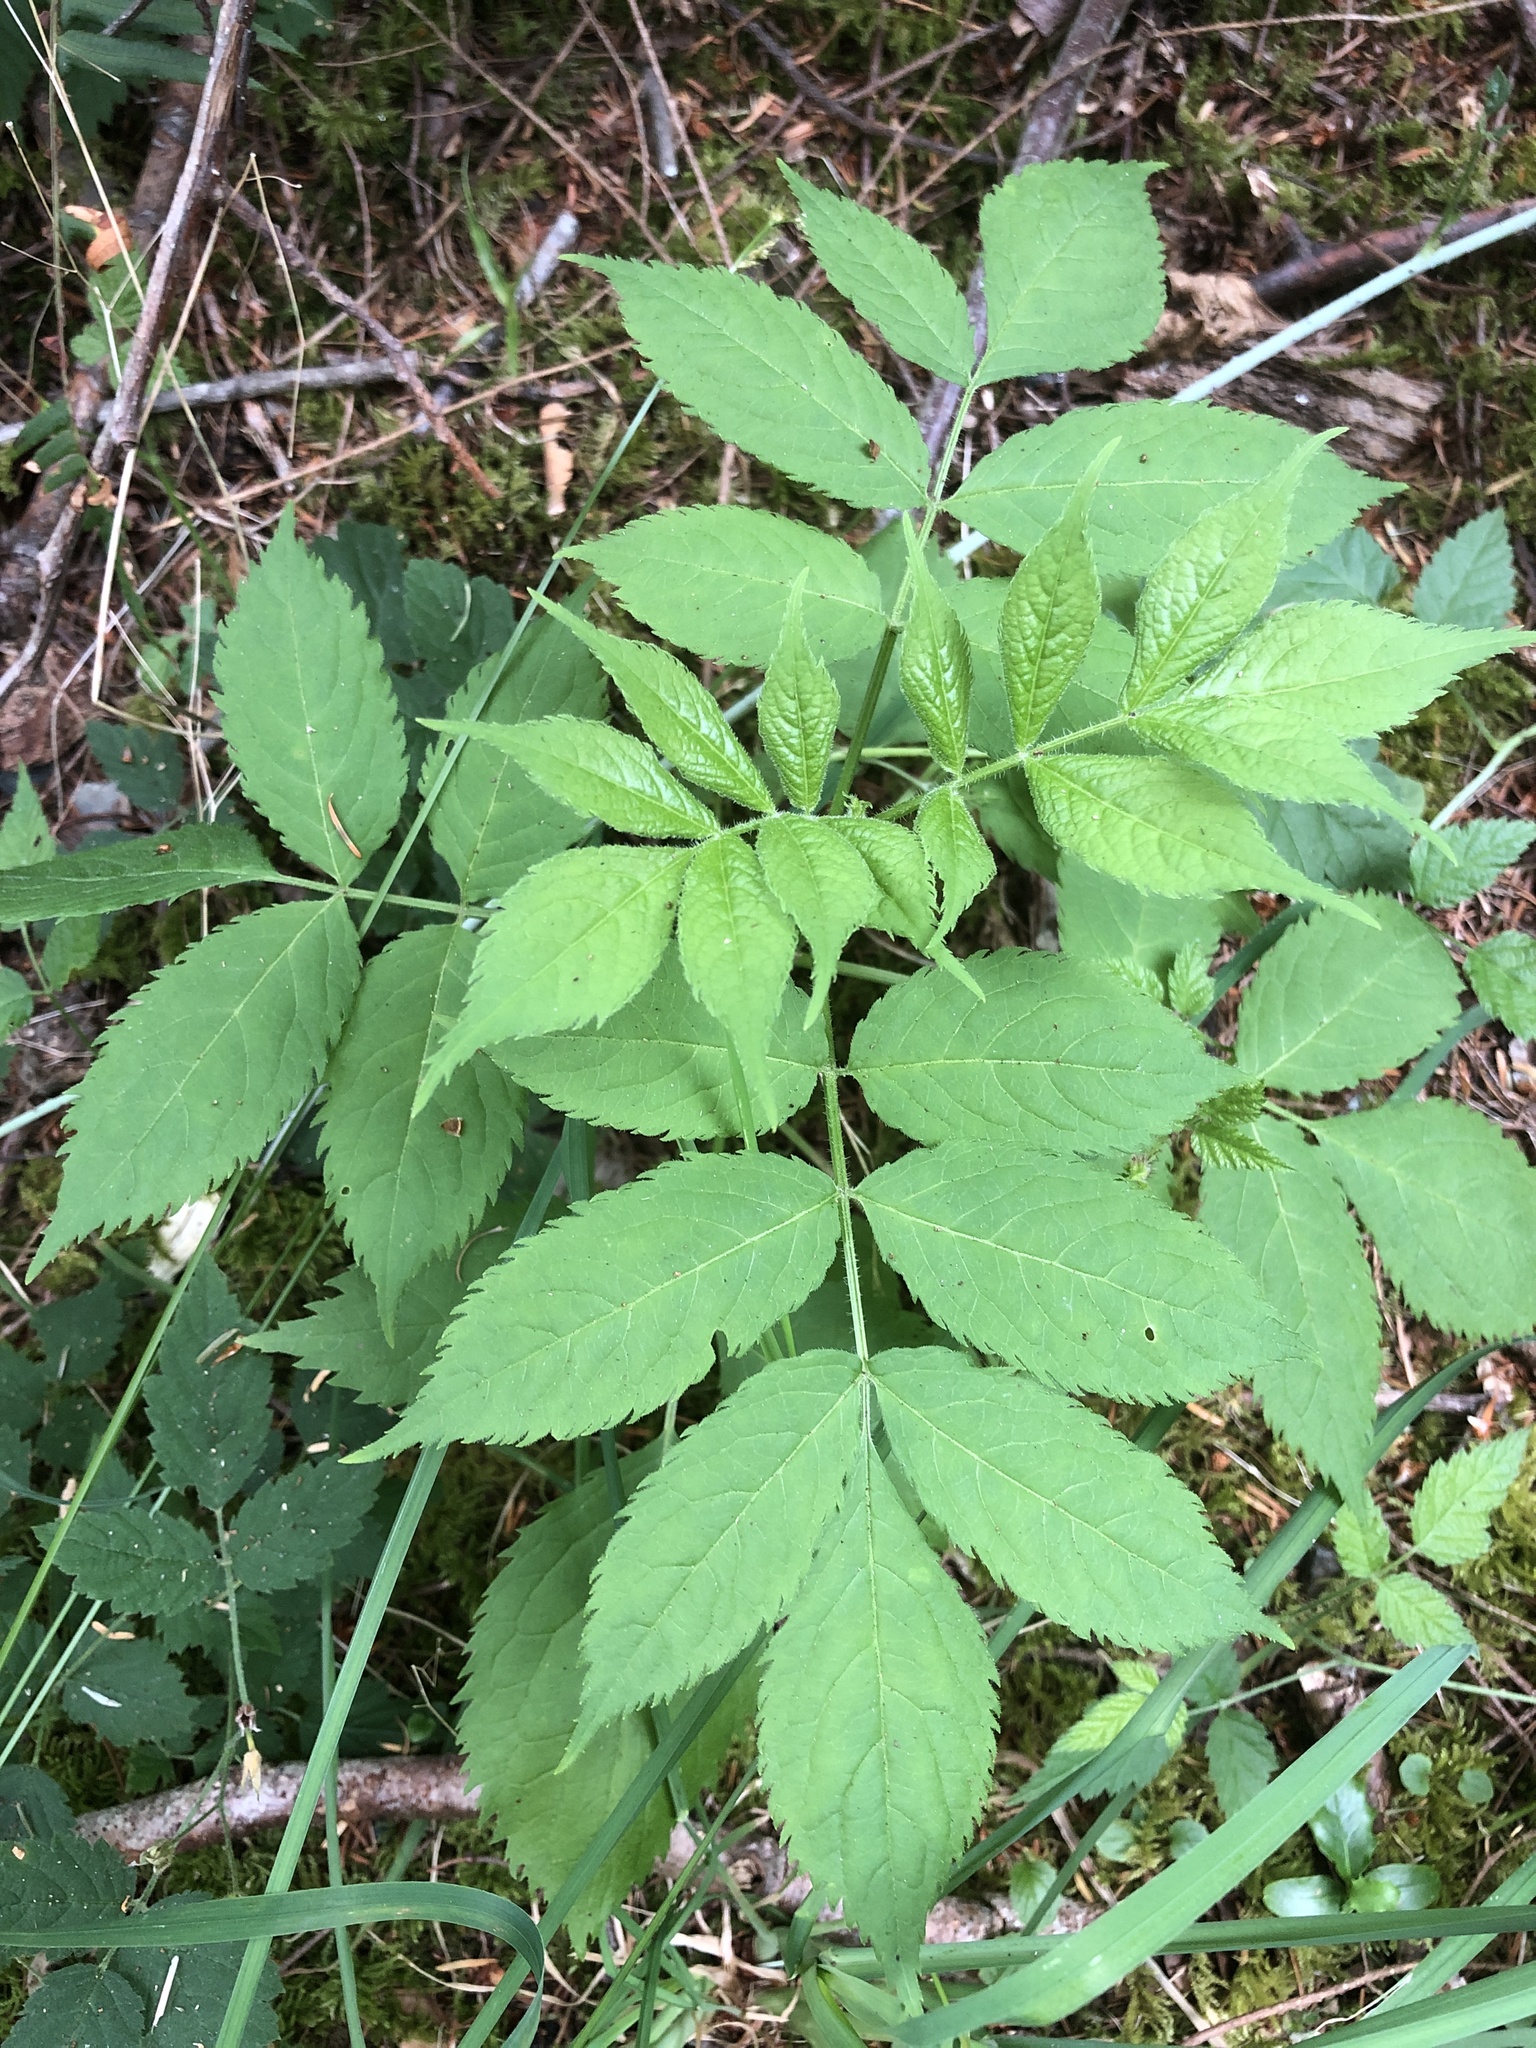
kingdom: Plantae
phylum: Tracheophyta
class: Magnoliopsida
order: Dipsacales
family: Viburnaceae
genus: Sambucus
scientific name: Sambucus racemosa
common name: Red-berried elder
